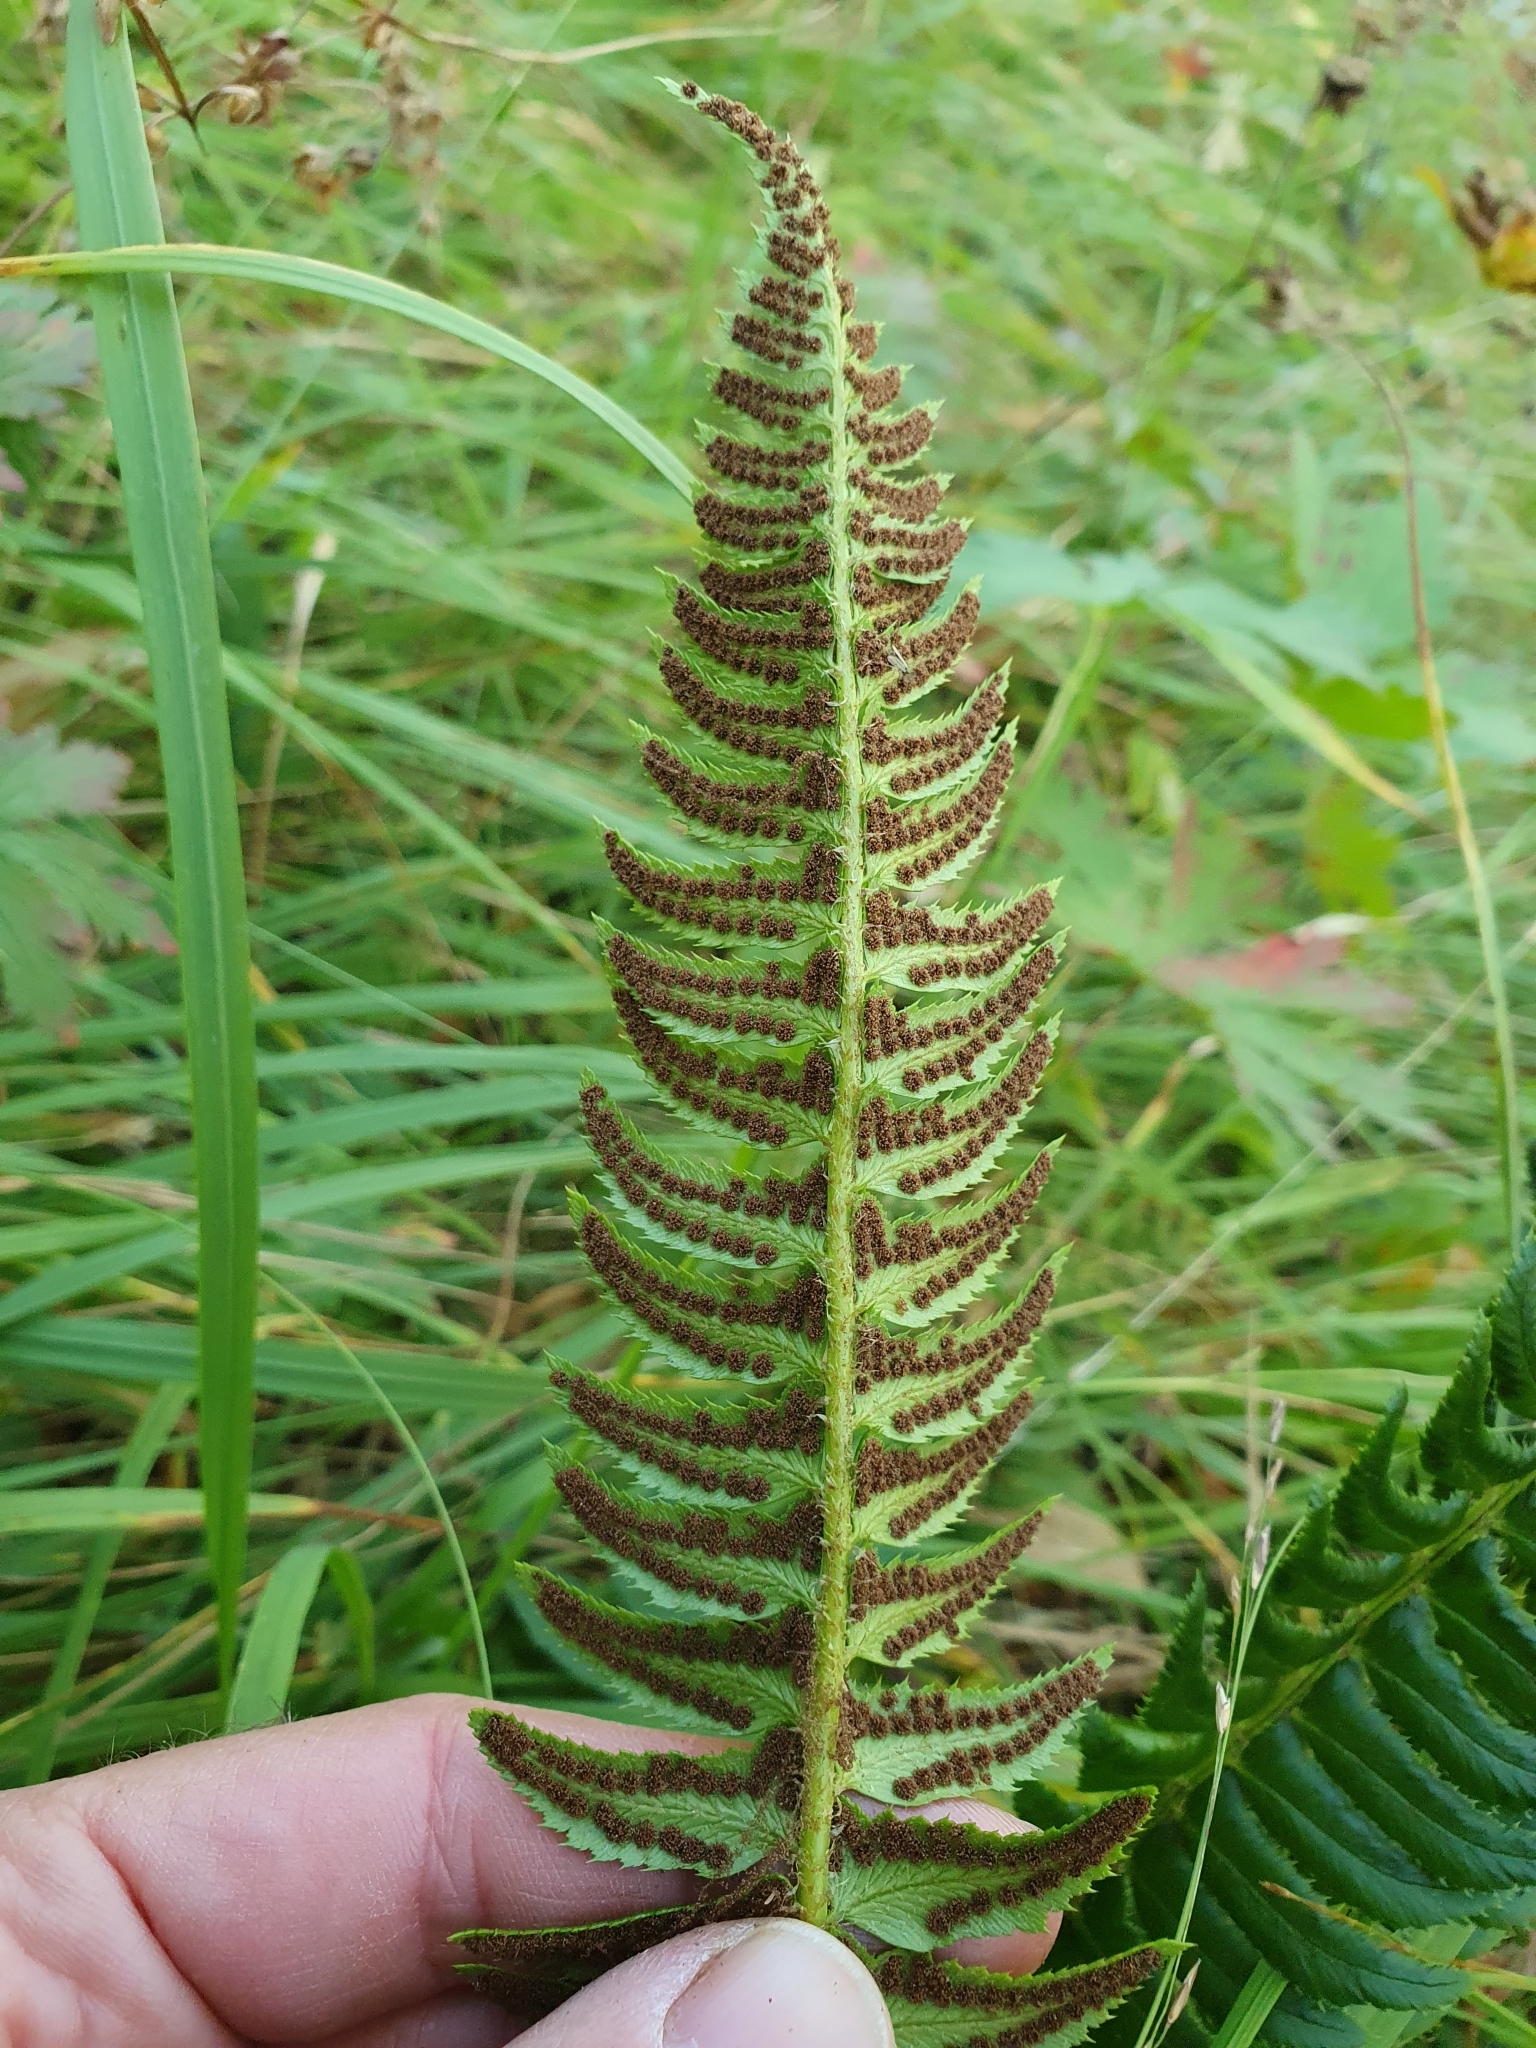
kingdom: Plantae
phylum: Tracheophyta
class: Polypodiopsida
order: Polypodiales
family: Dryopteridaceae
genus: Polystichum
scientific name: Polystichum lonchitis
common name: Holly fern
